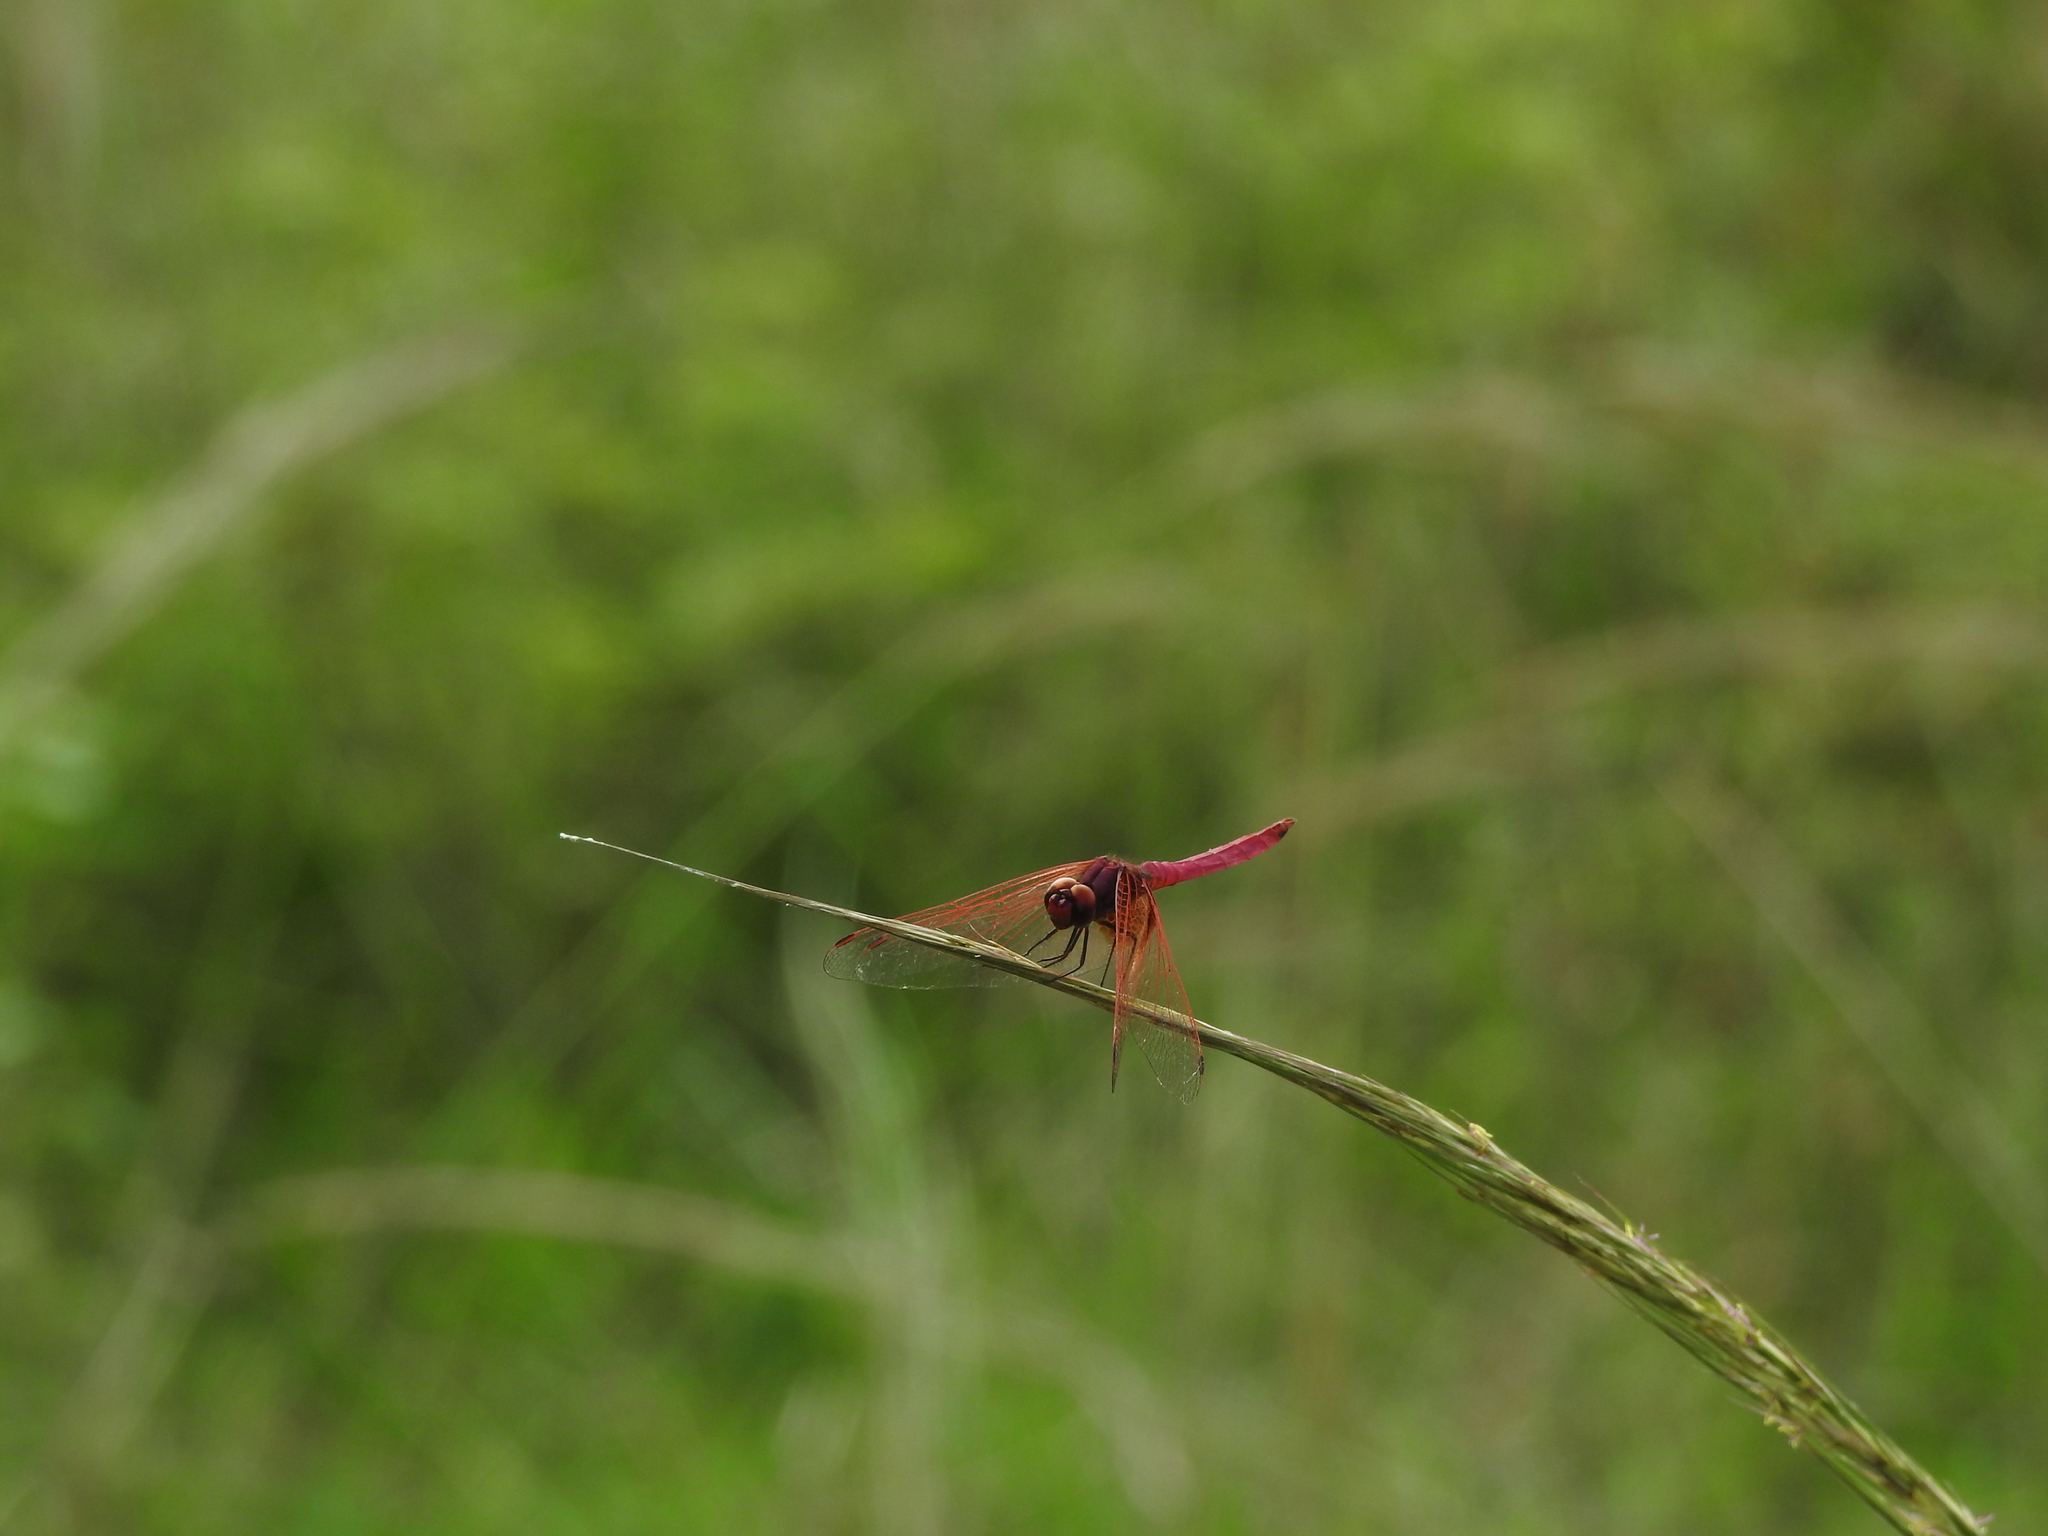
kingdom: Animalia
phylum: Arthropoda
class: Insecta
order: Odonata
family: Libellulidae
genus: Trithemis
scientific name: Trithemis aurora
